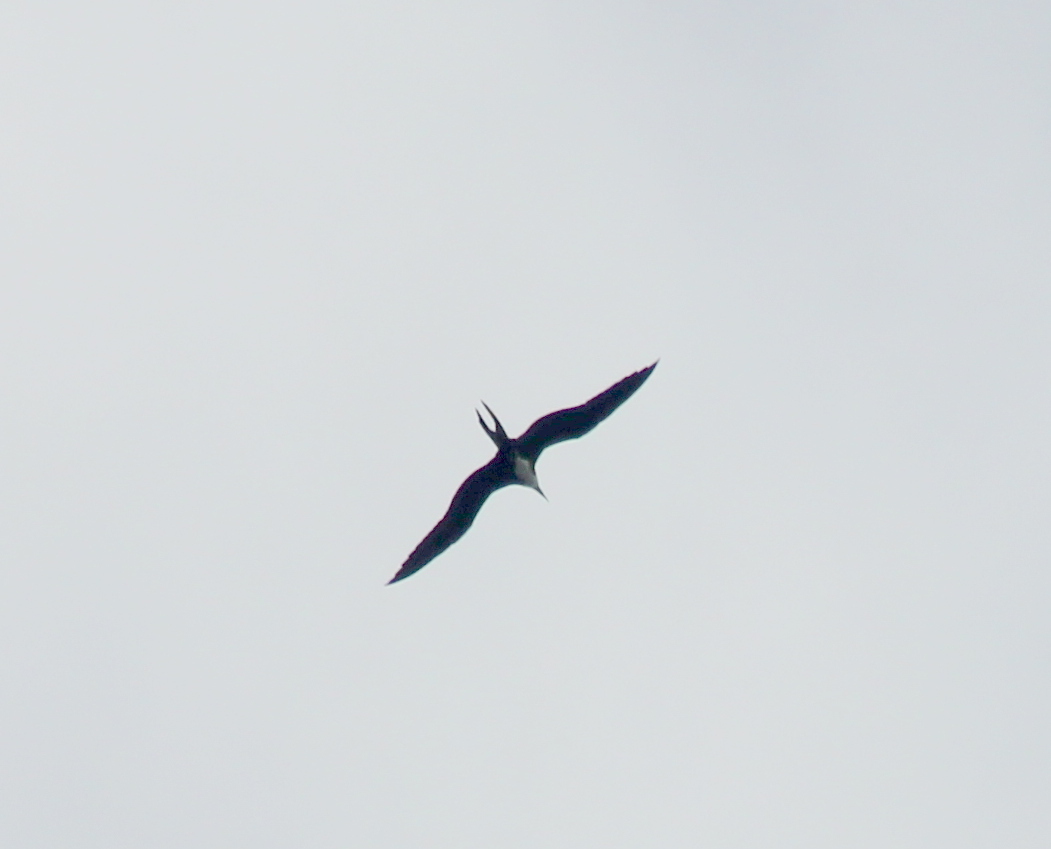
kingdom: Animalia
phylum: Chordata
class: Aves
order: Suliformes
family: Fregatidae
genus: Fregata
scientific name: Fregata magnificens
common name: Magnificent frigatebird
